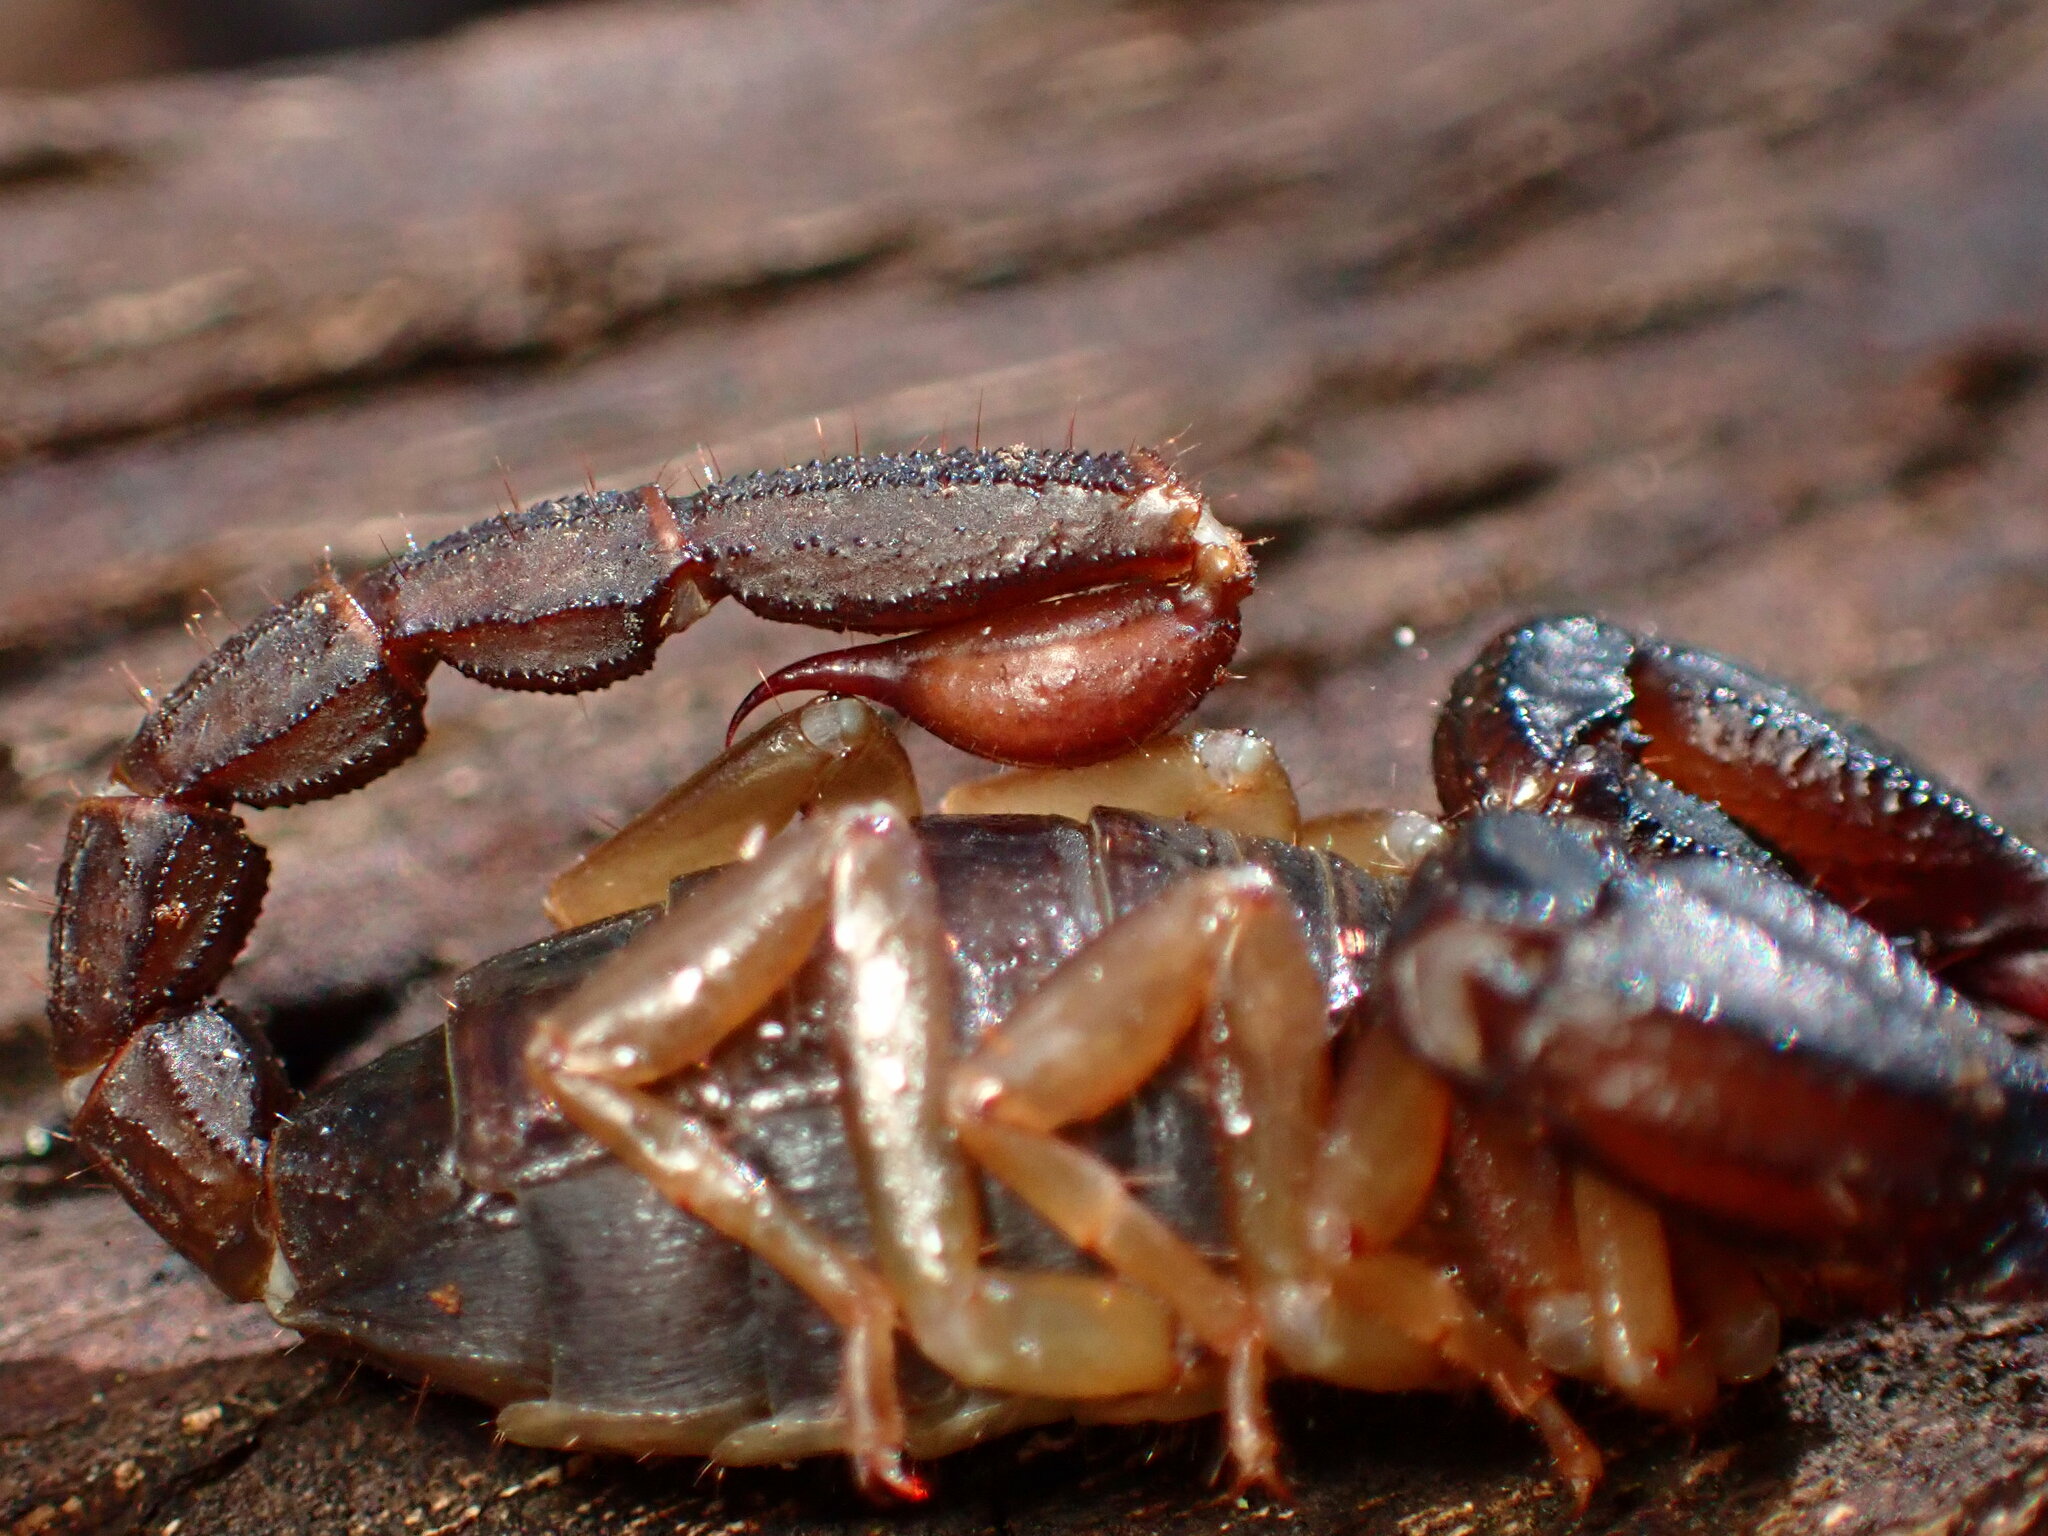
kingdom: Animalia
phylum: Arthropoda
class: Arachnida
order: Scorpiones
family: Chactidae
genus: Uroctonus
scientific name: Uroctonus mordax
